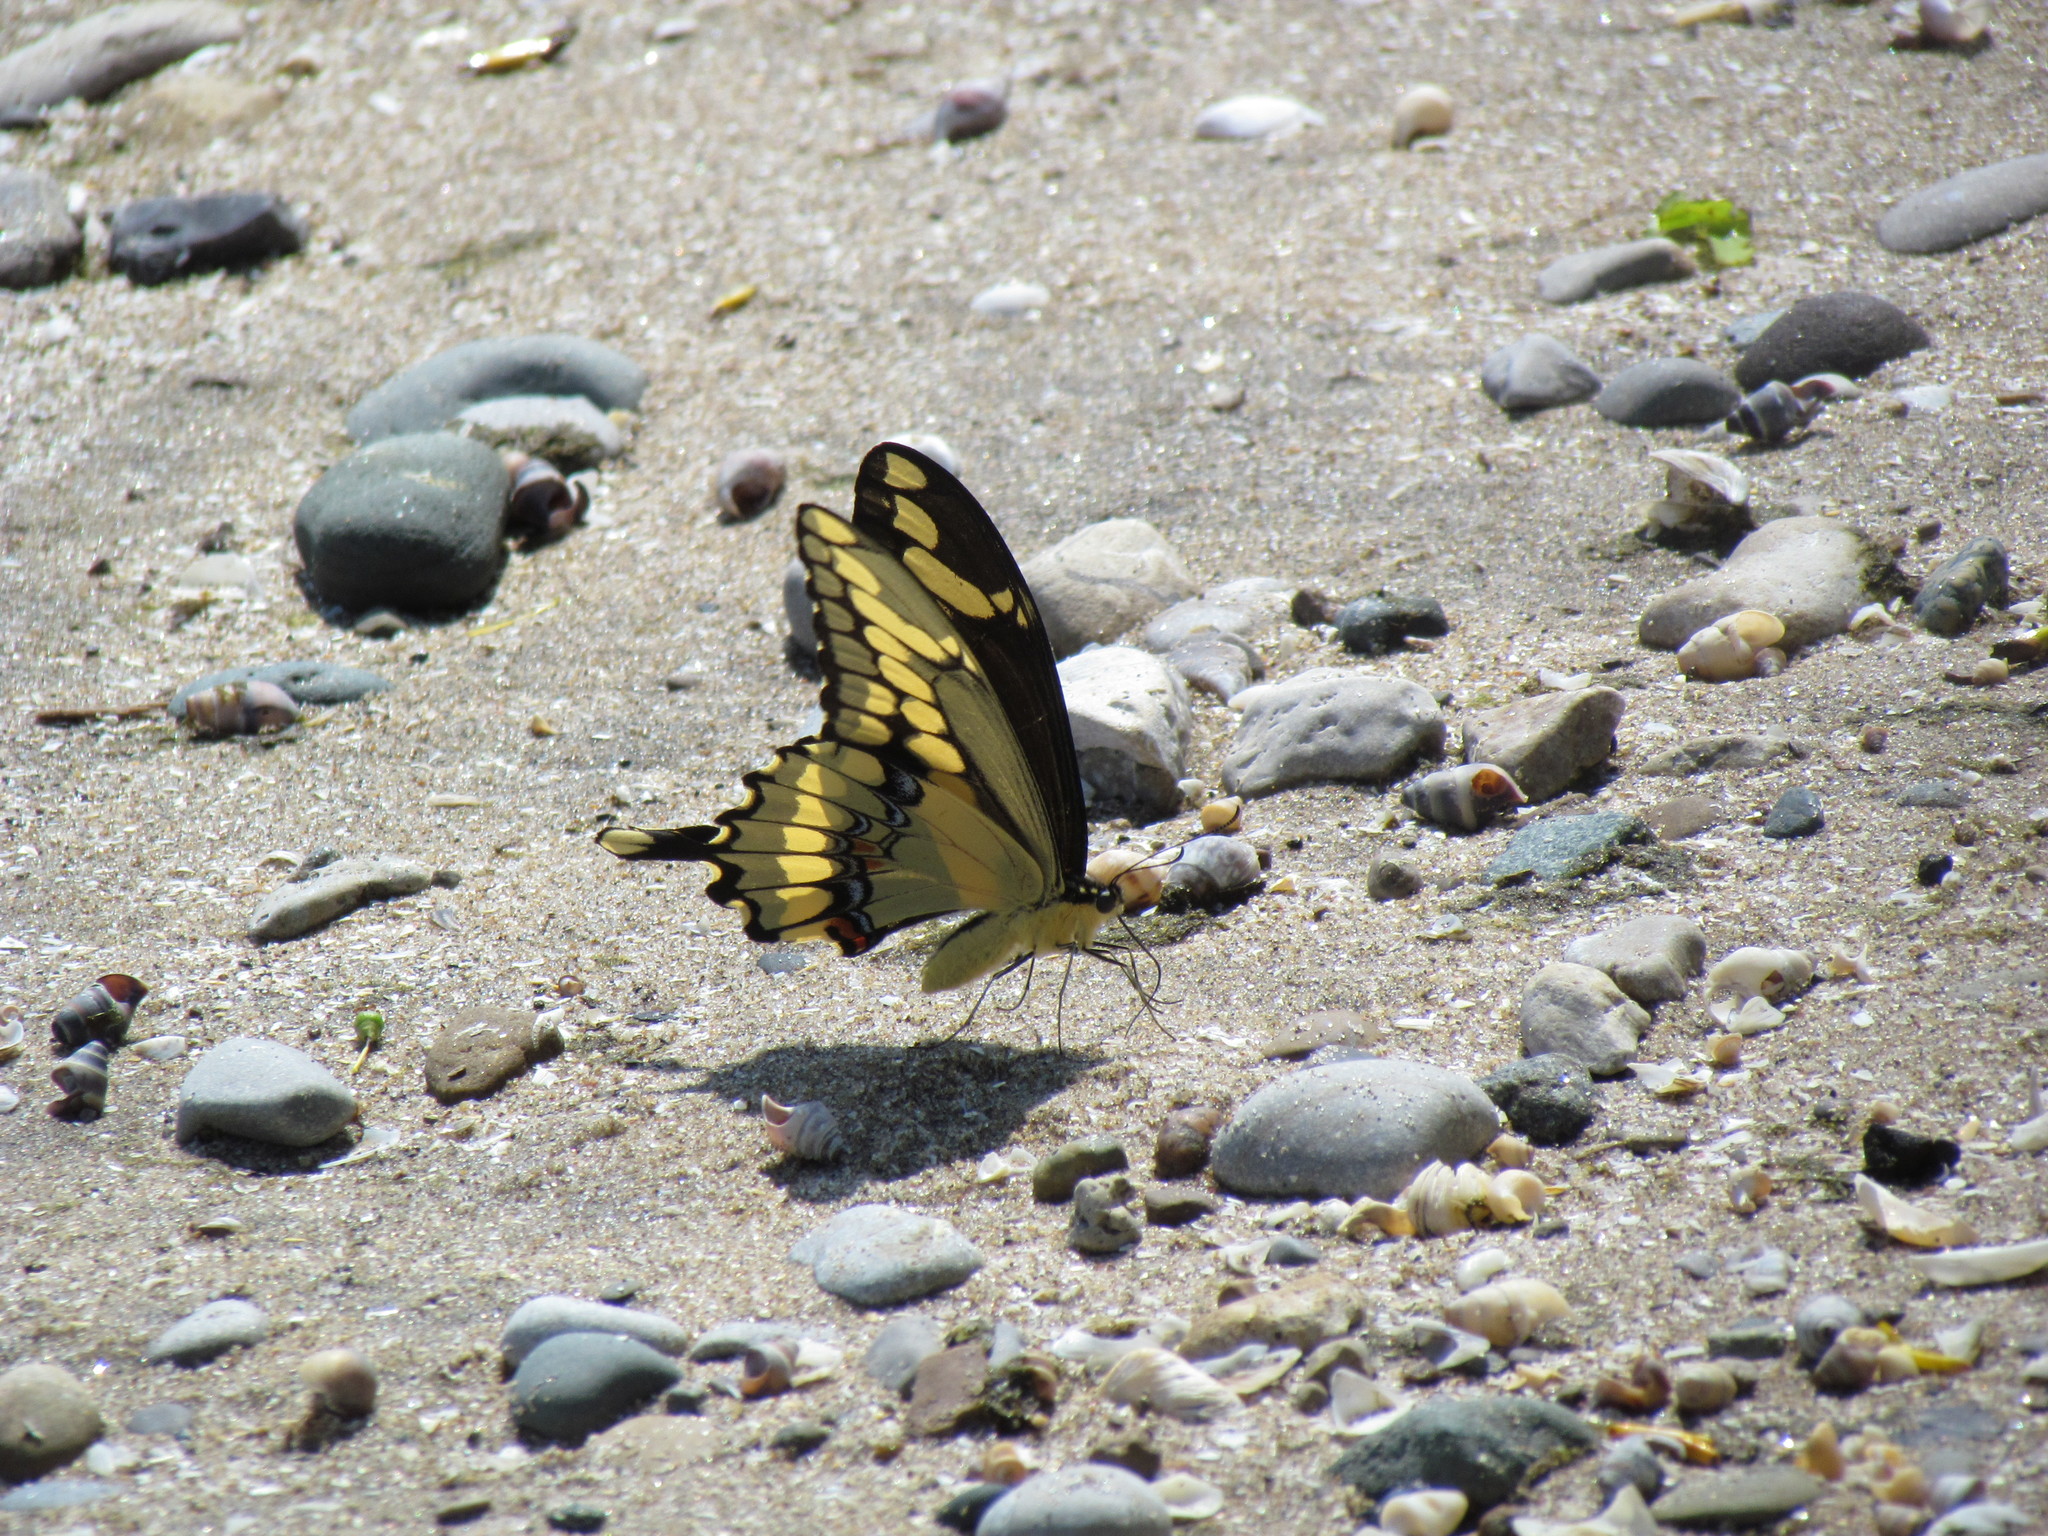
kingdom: Animalia
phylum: Arthropoda
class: Insecta
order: Lepidoptera
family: Papilionidae
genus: Papilio
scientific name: Papilio cresphontes
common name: Giant swallowtail
